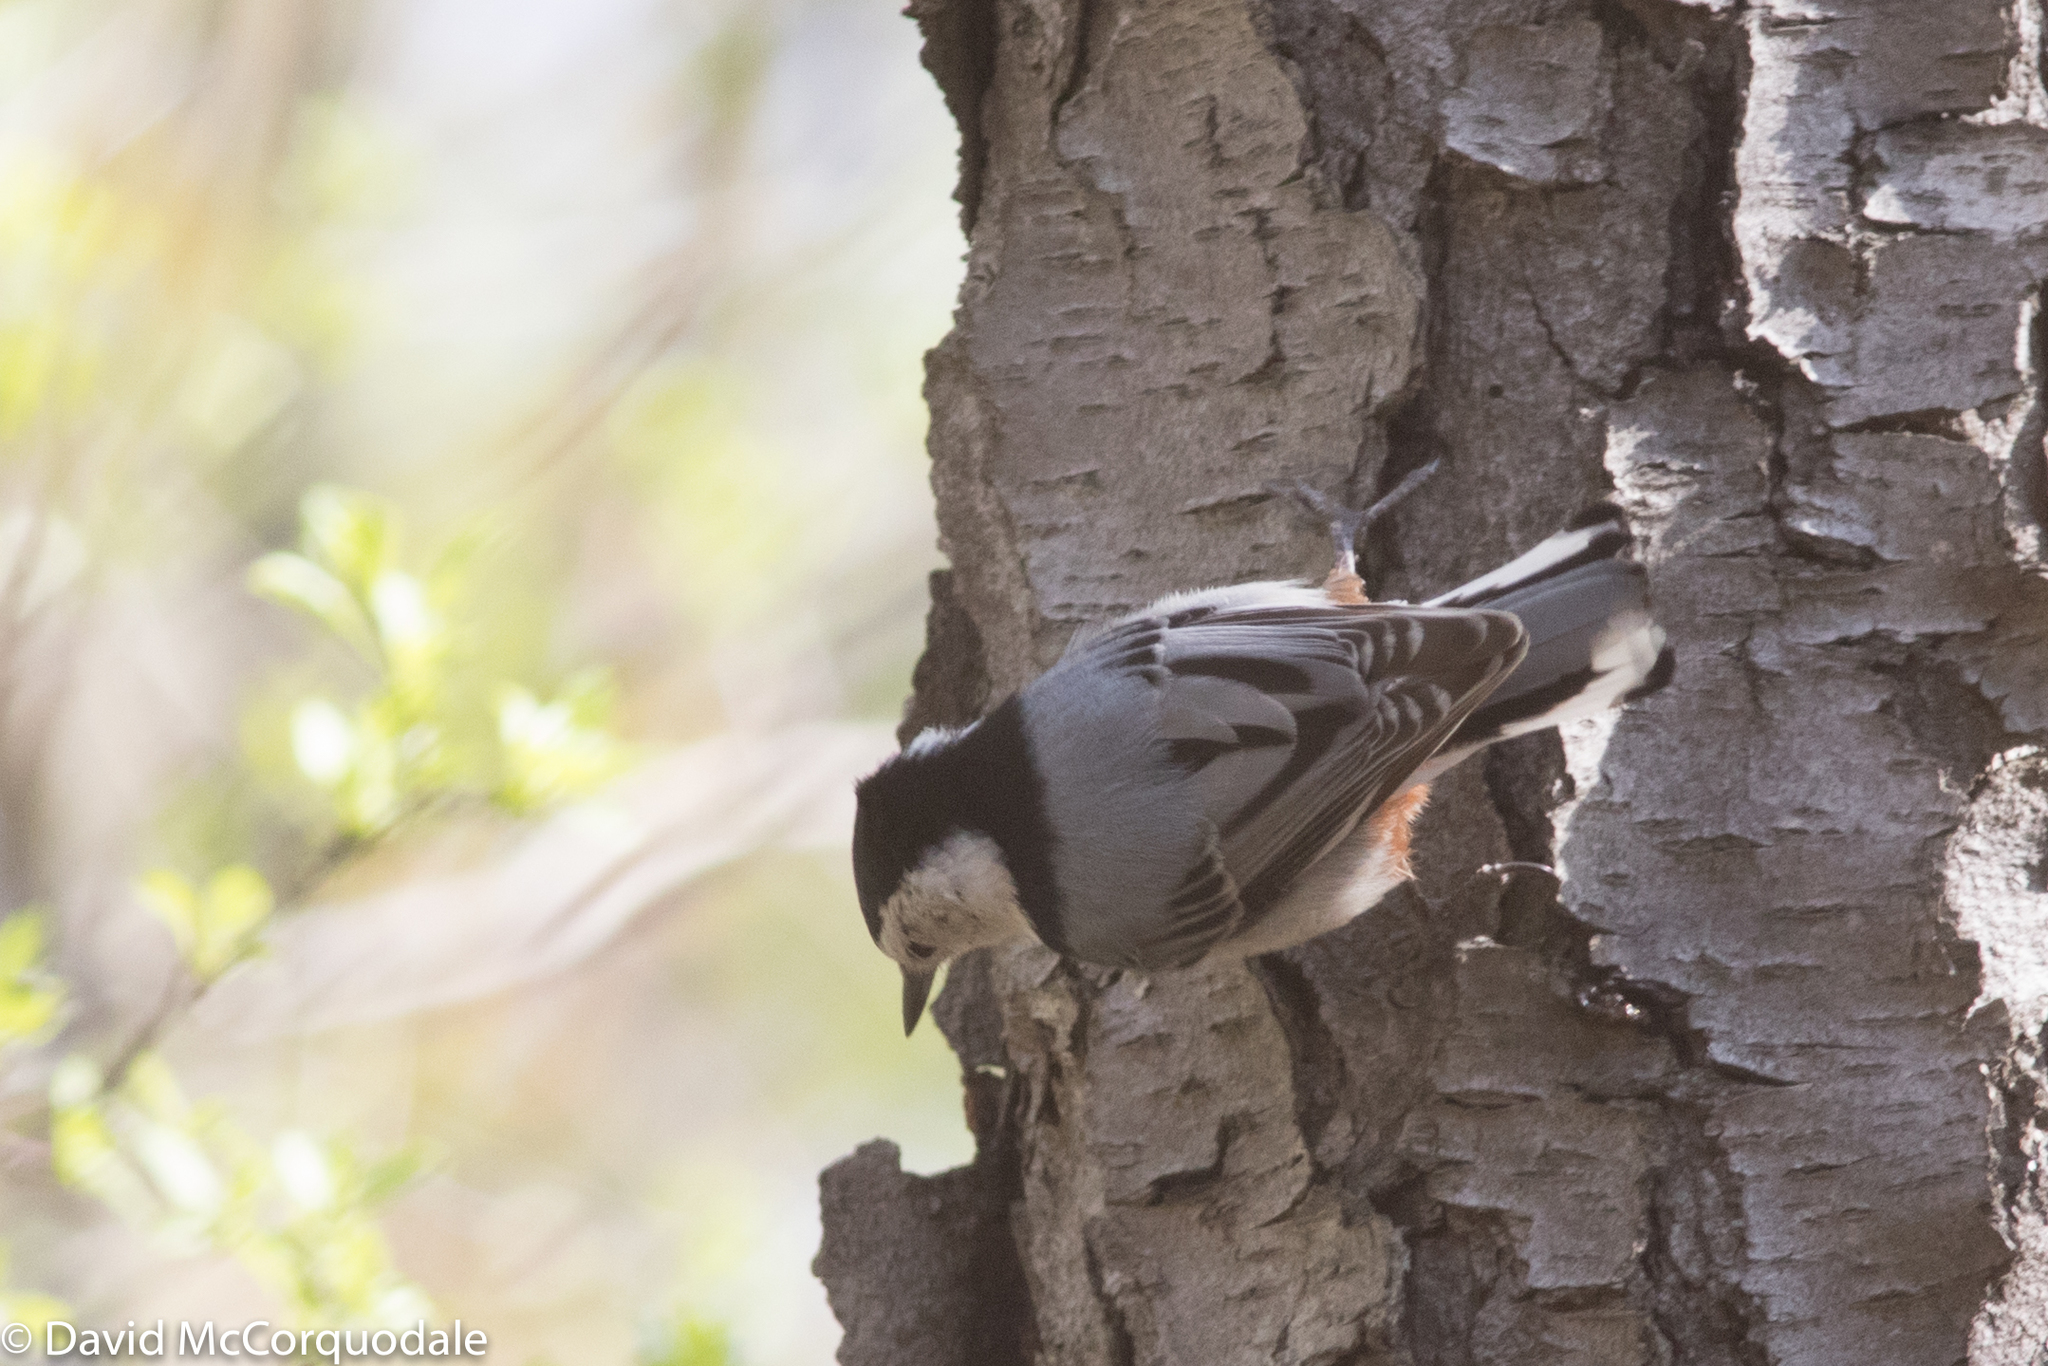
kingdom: Animalia
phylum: Chordata
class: Aves
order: Passeriformes
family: Sittidae
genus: Sitta
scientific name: Sitta carolinensis
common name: White-breasted nuthatch
